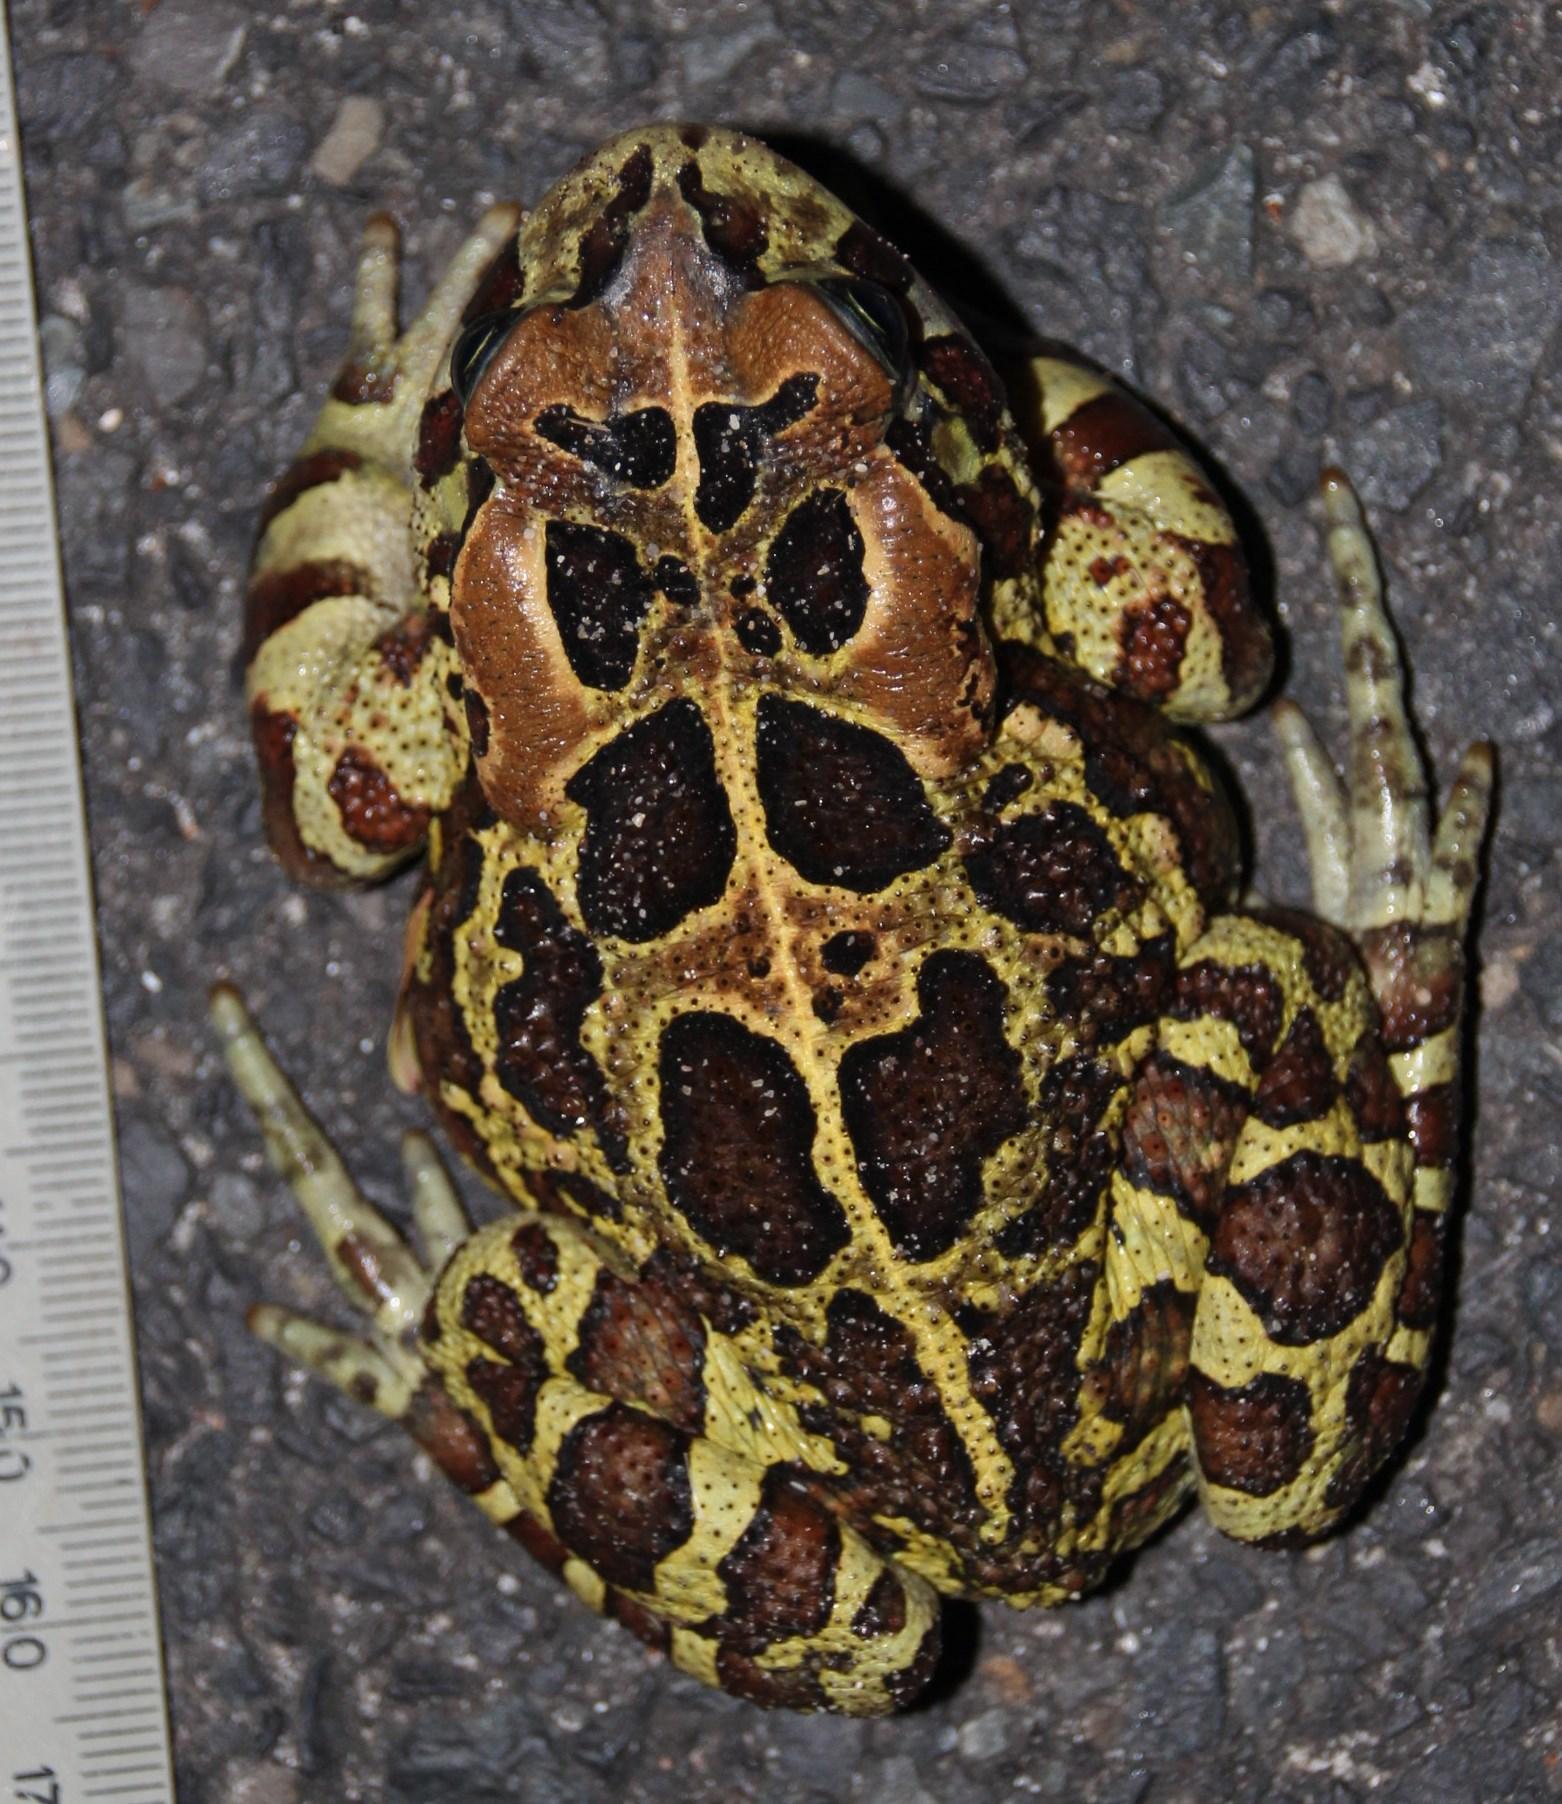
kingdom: Animalia
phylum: Chordata
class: Amphibia
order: Anura
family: Bufonidae
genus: Sclerophrys
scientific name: Sclerophrys pantherina
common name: Panther toad
